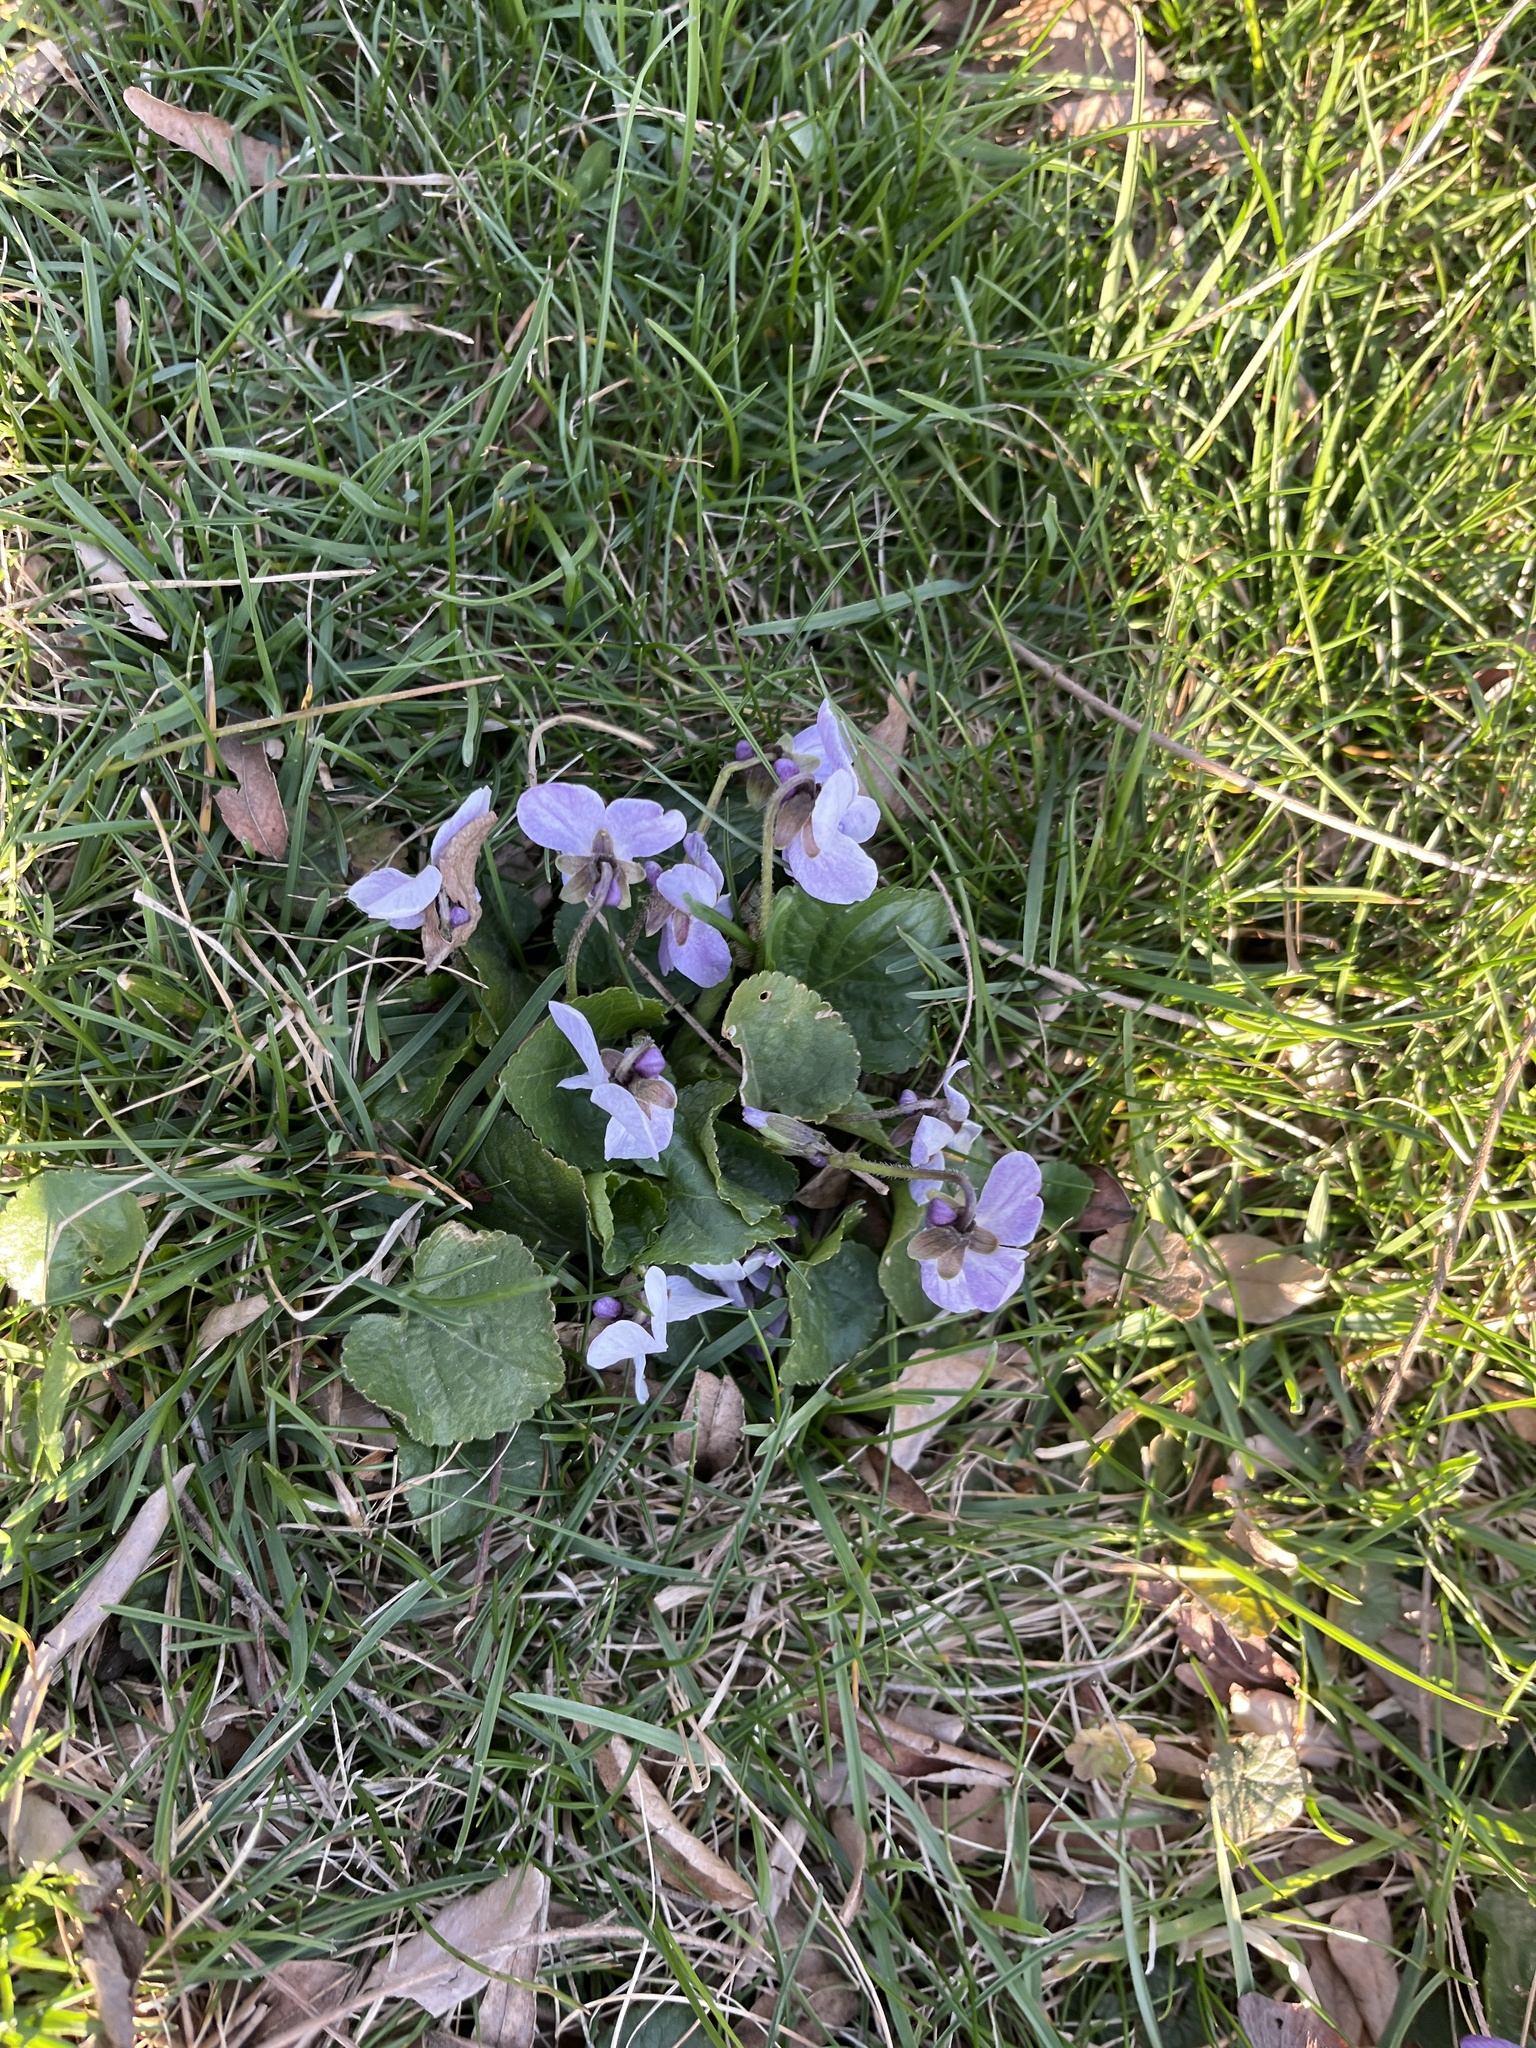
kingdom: Plantae
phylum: Tracheophyta
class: Magnoliopsida
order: Malpighiales
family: Violaceae
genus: Viola
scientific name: Viola odorata
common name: Sweet violet
